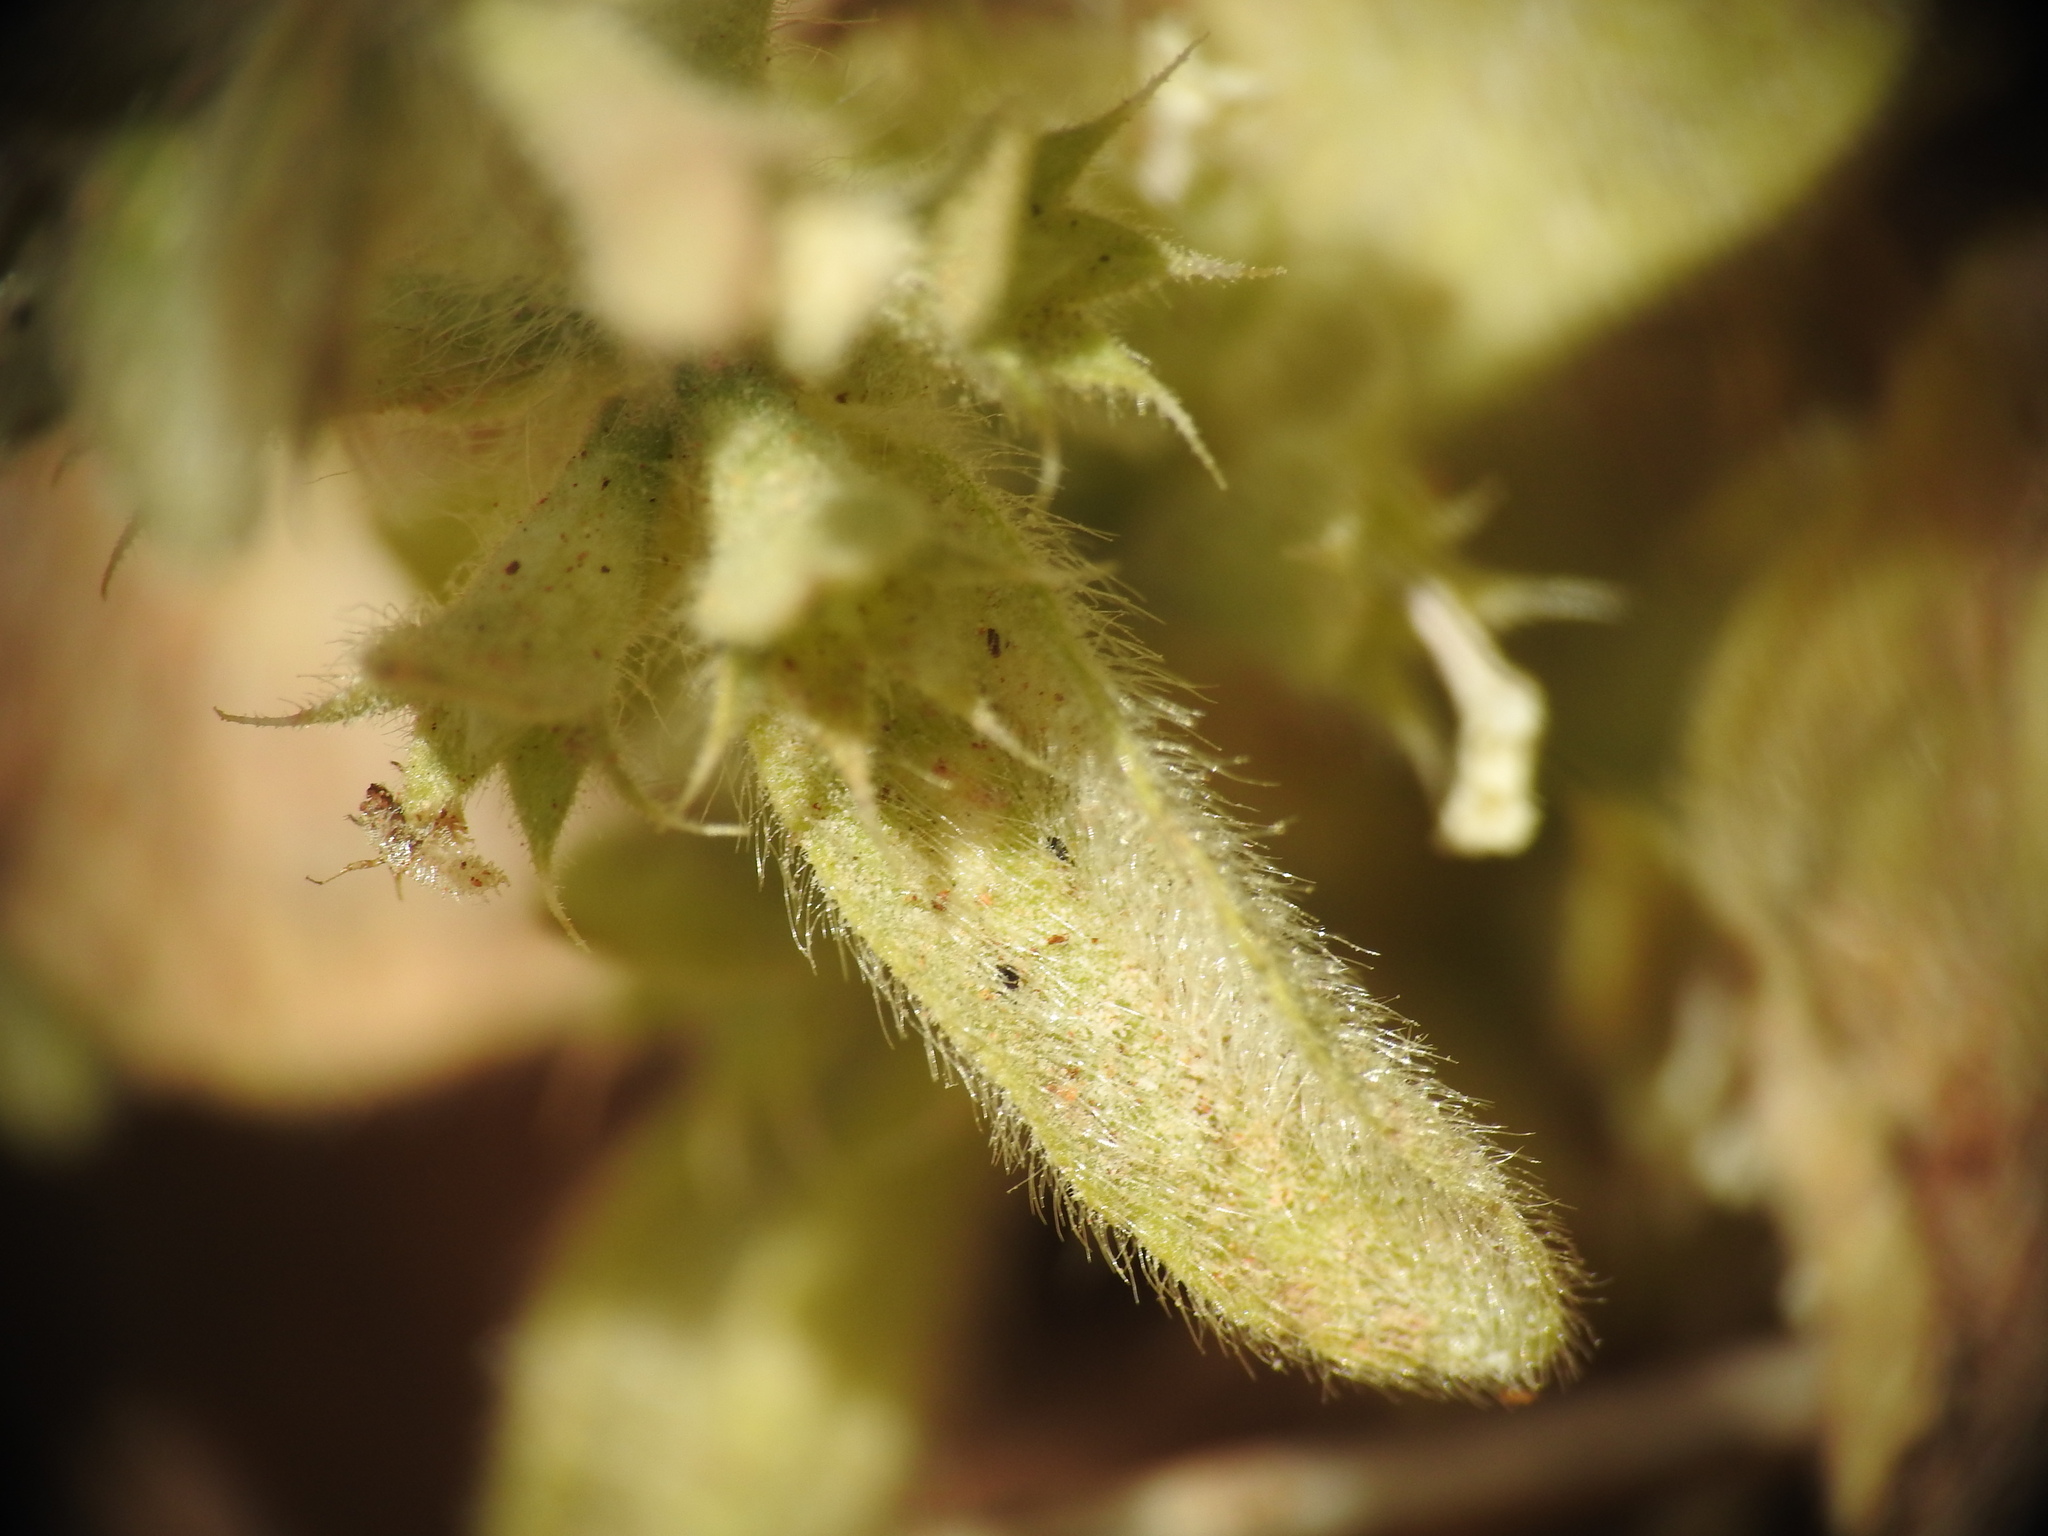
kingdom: Plantae
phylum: Tracheophyta
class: Magnoliopsida
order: Lamiales
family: Lamiaceae
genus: Sideritis
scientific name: Sideritis romana
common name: Simplebeak ironwort
